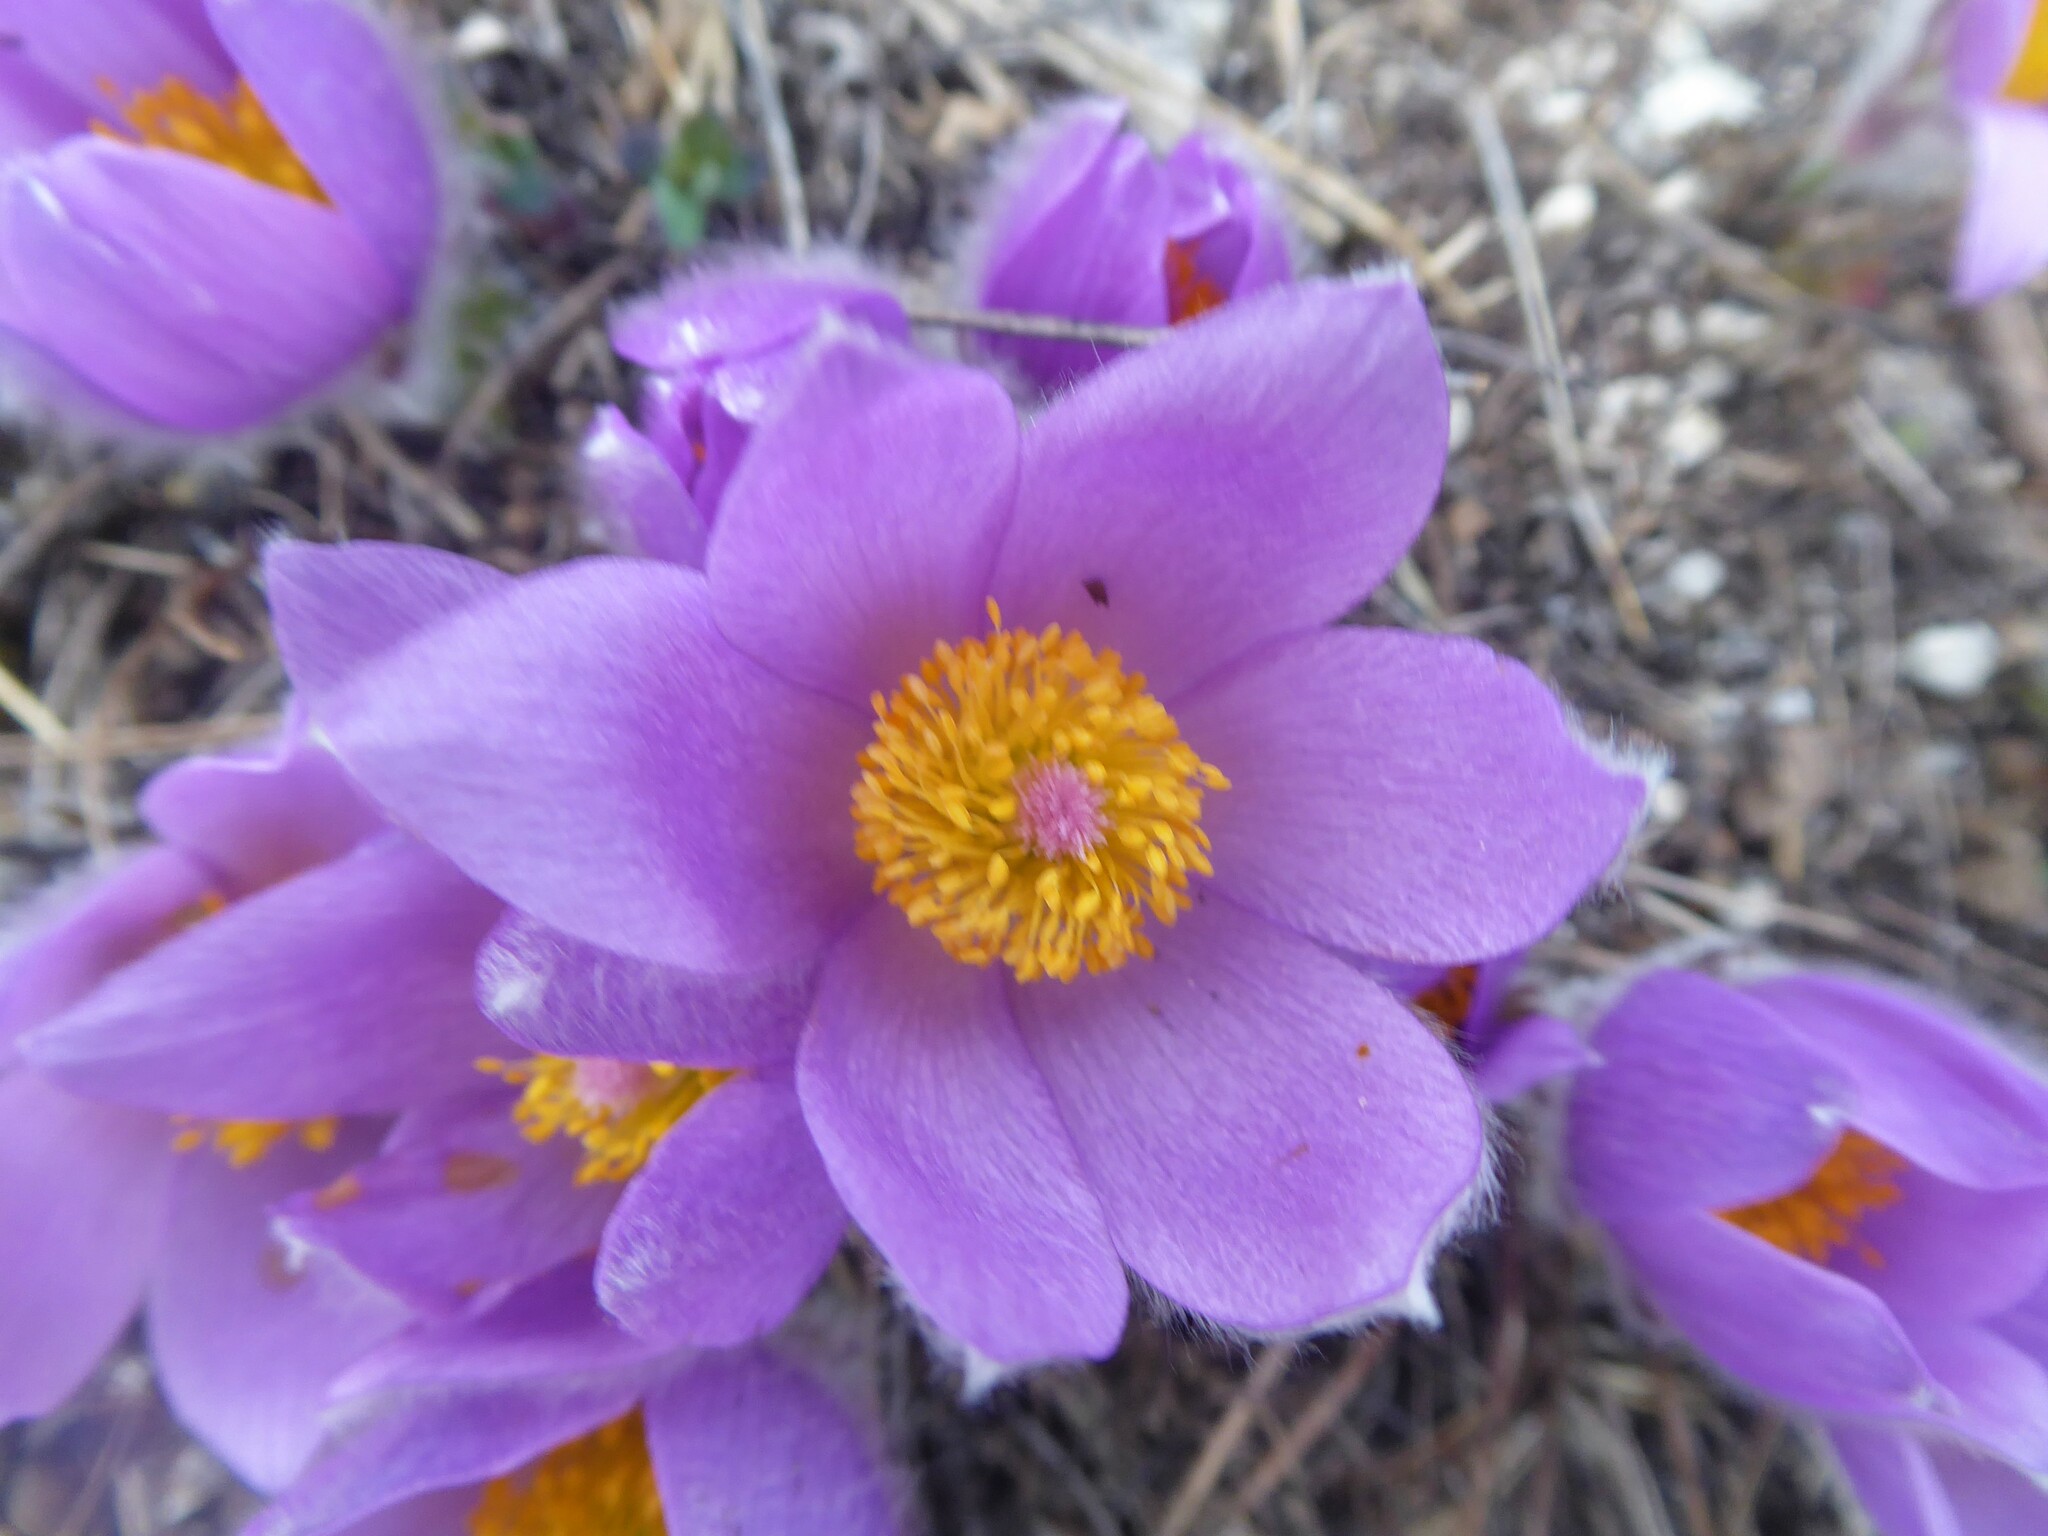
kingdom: Plantae
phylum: Tracheophyta
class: Magnoliopsida
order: Ranunculales
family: Ranunculaceae
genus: Pulsatilla
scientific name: Pulsatilla grandis
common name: Greater pasque flower
